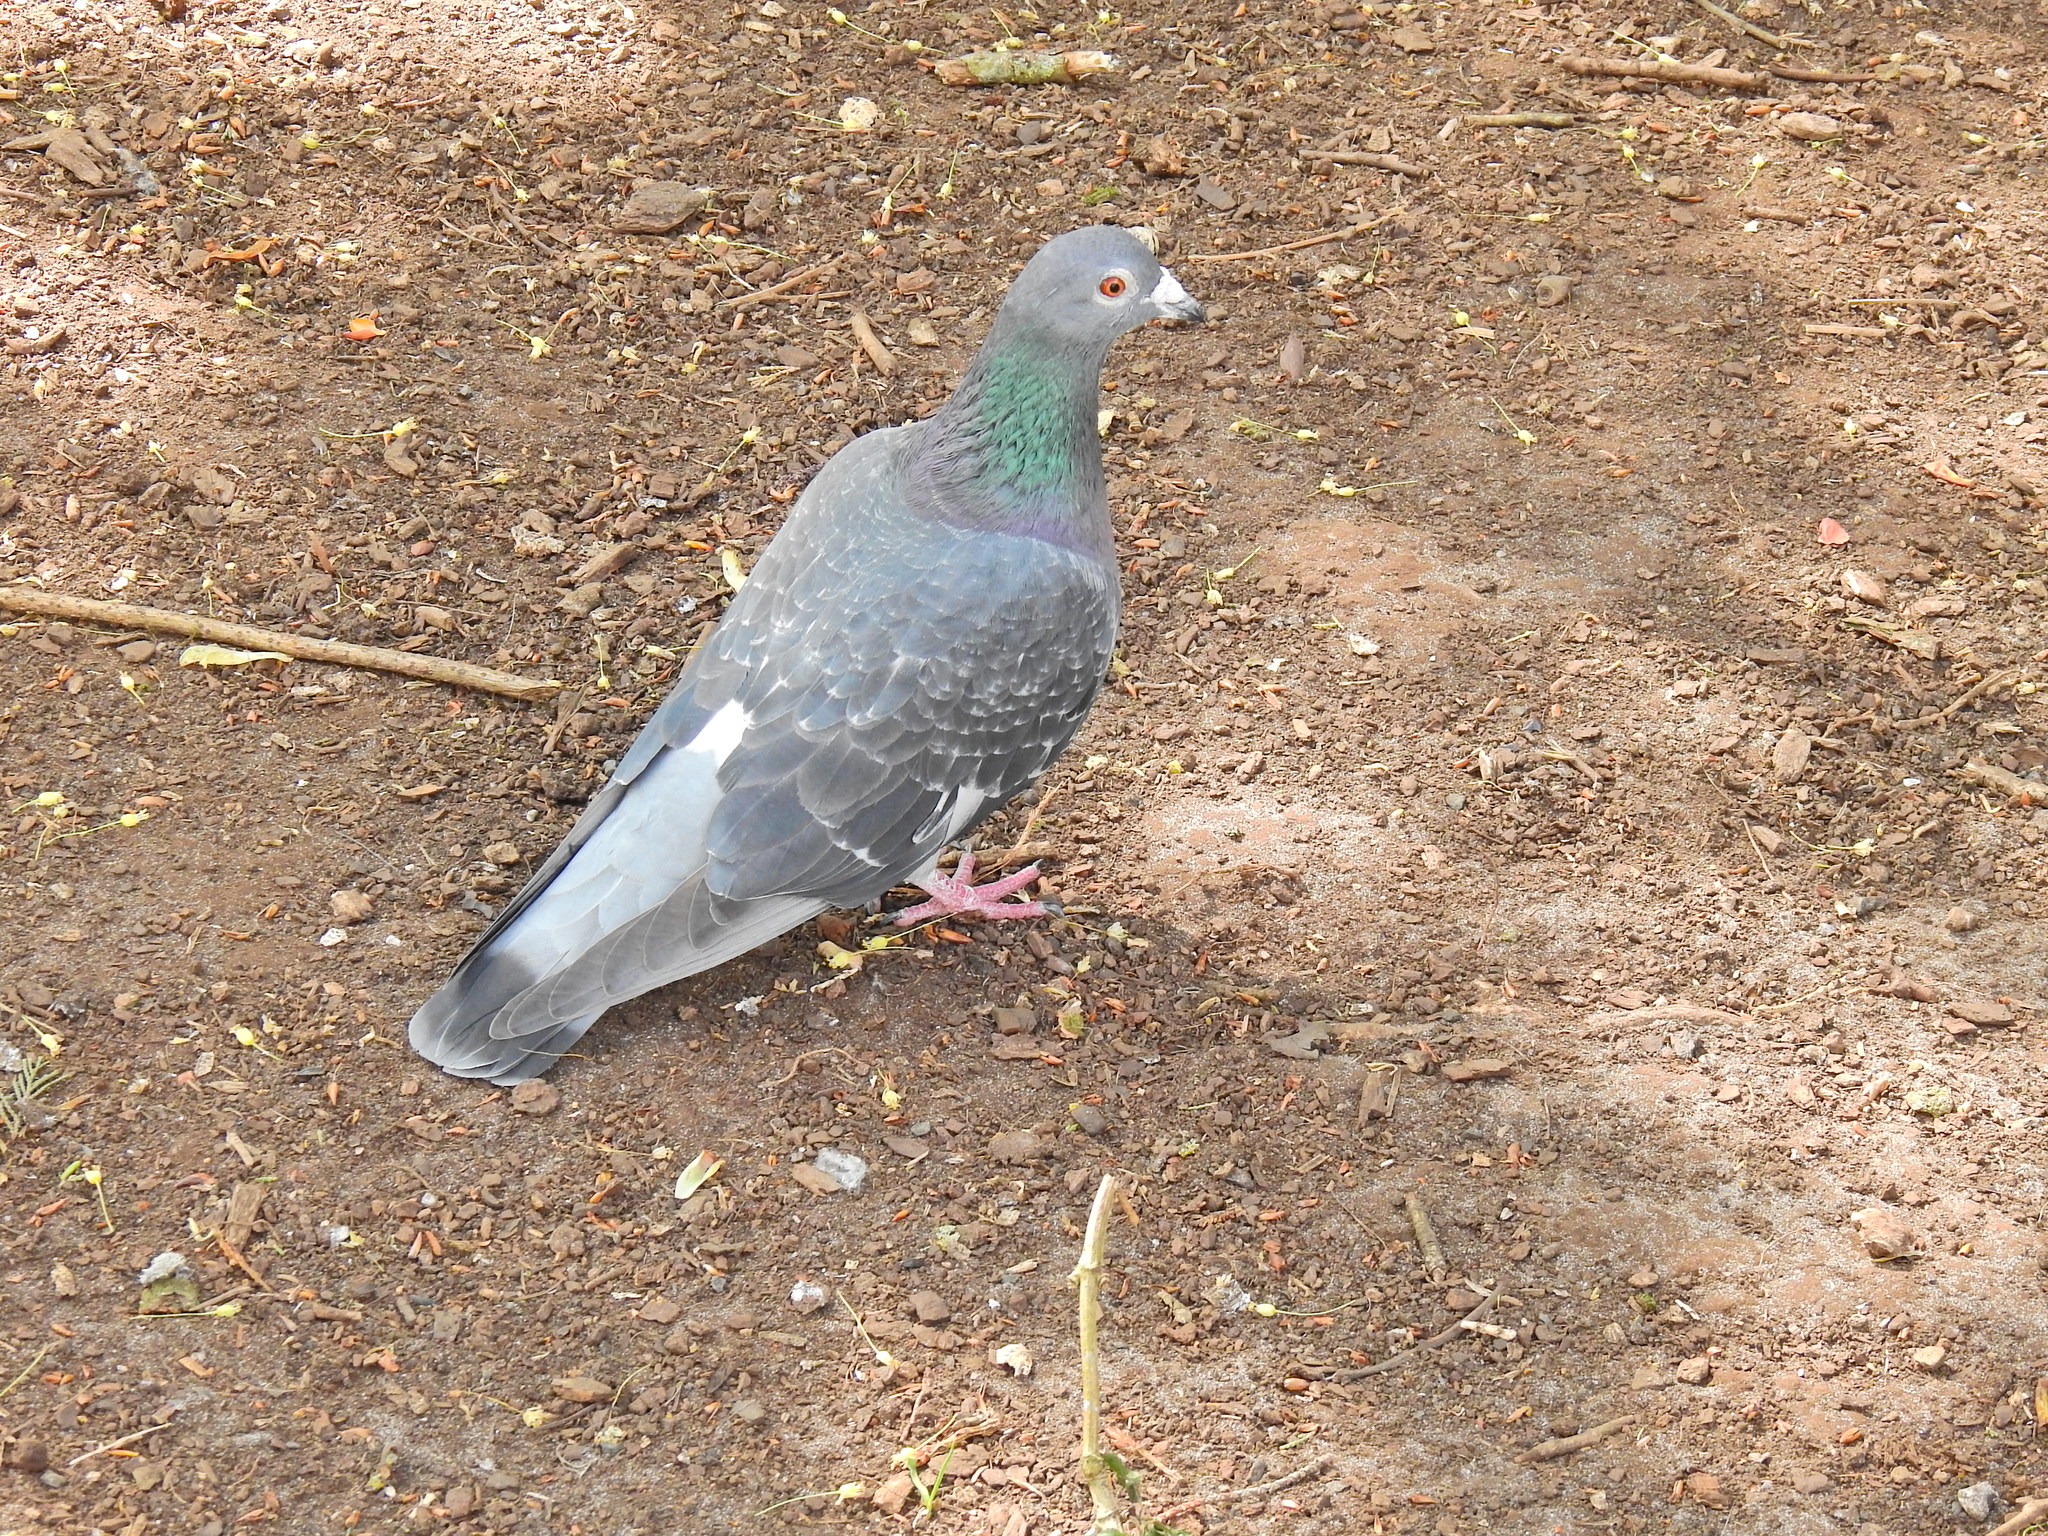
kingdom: Animalia
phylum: Chordata
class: Aves
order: Columbiformes
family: Columbidae
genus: Columba
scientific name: Columba livia
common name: Rock pigeon
